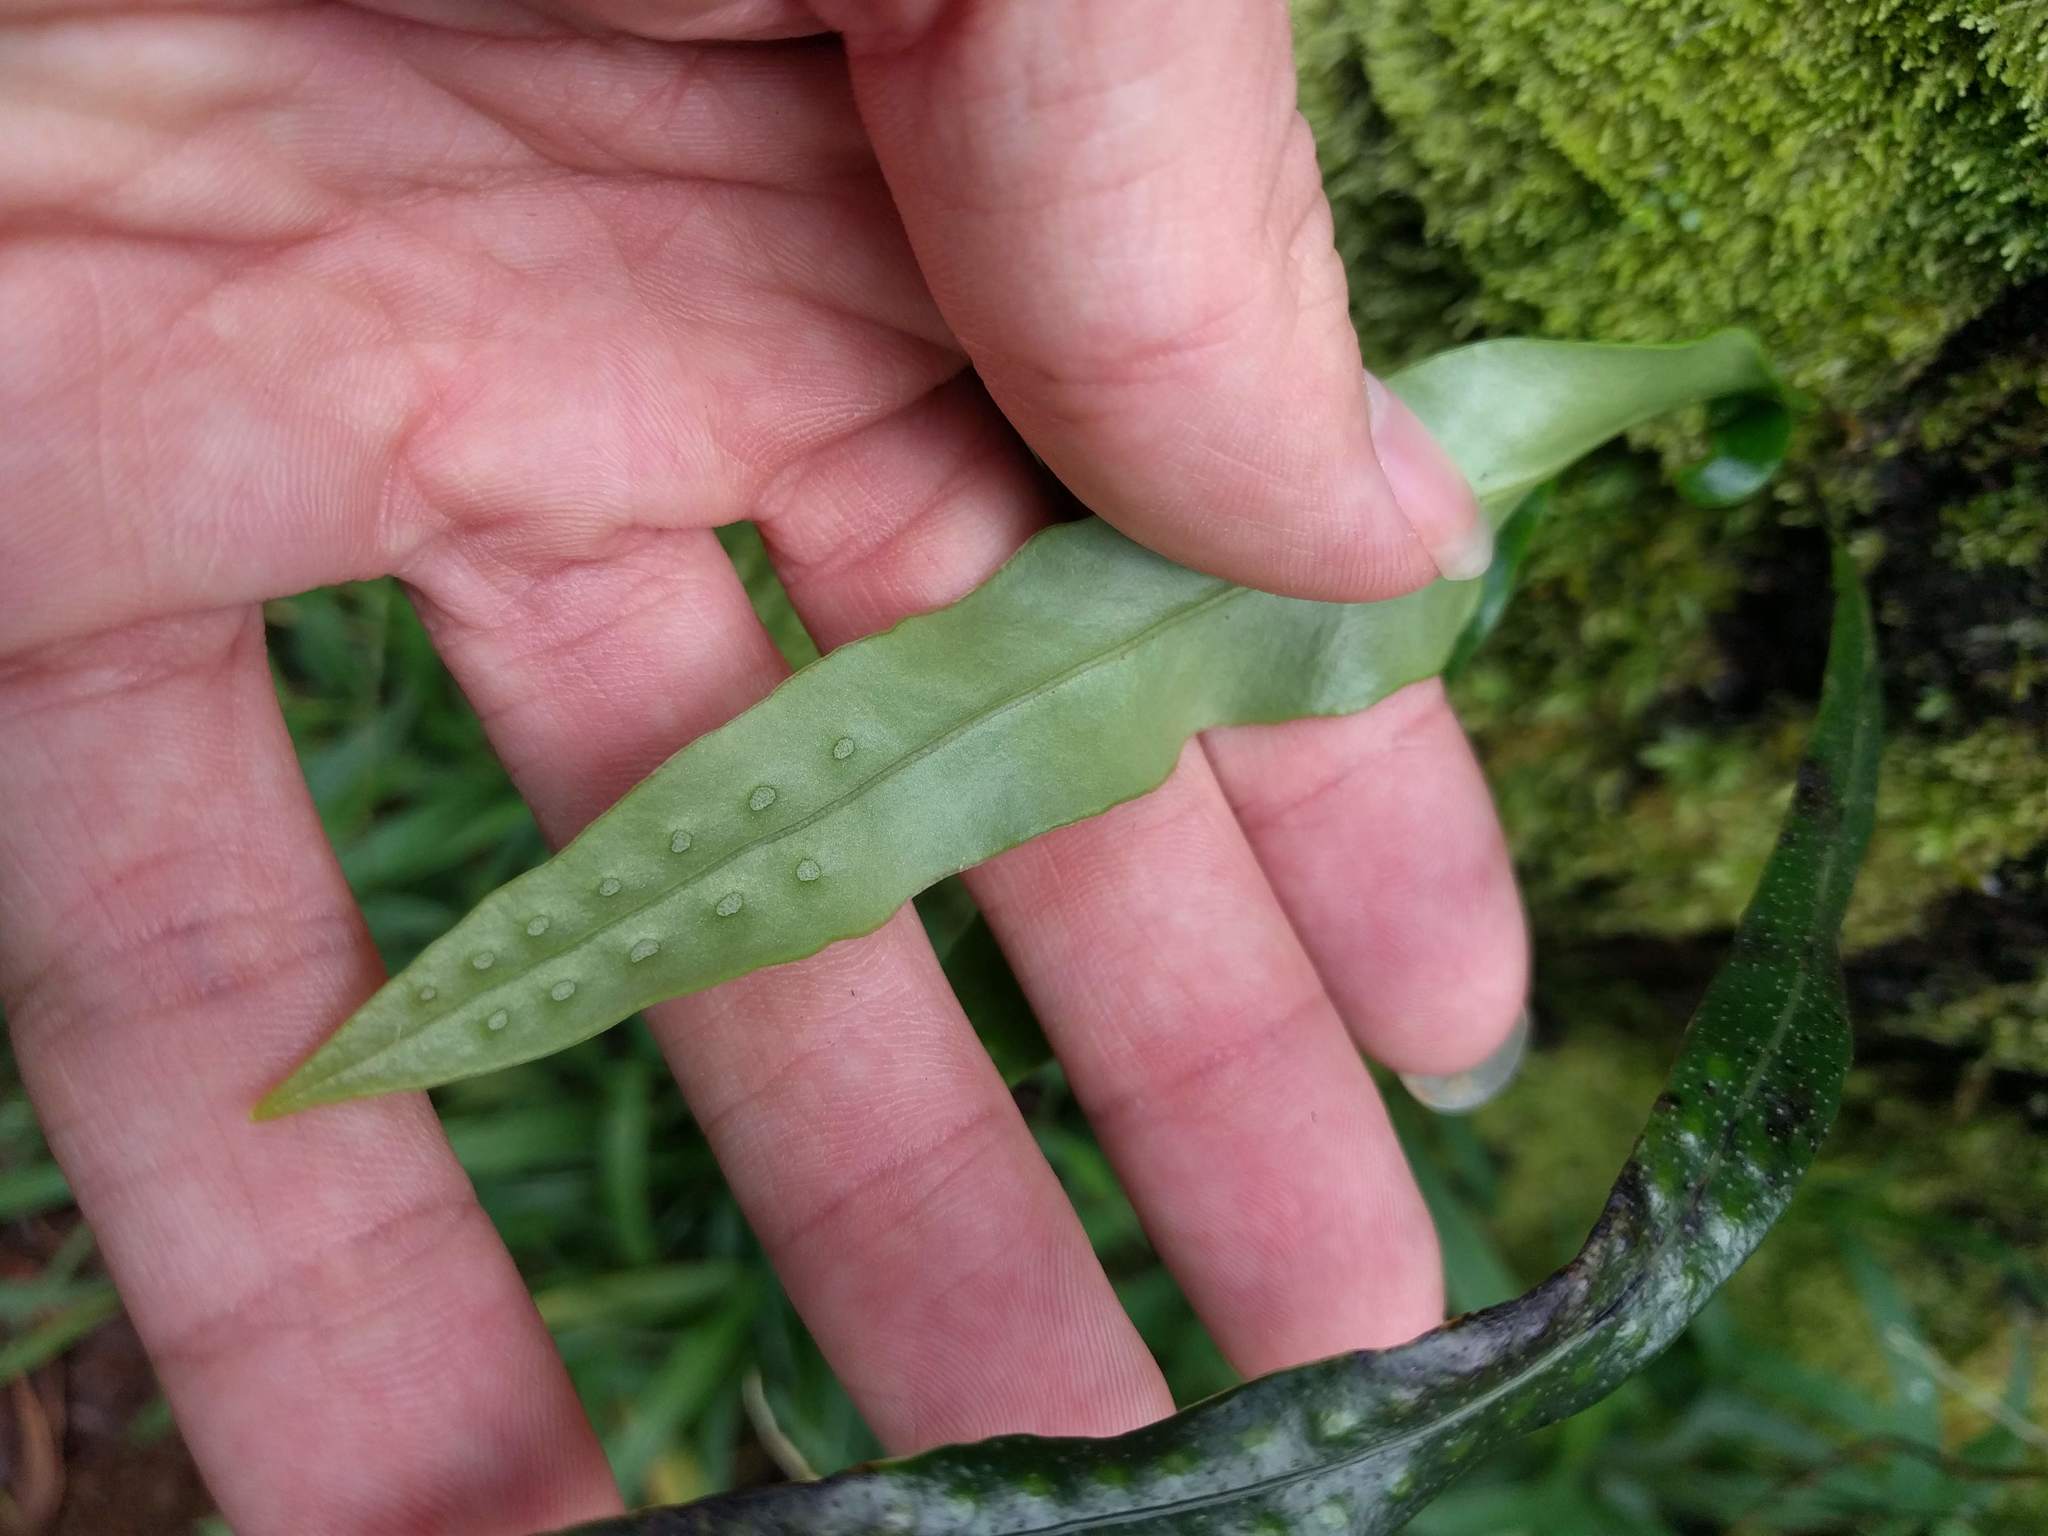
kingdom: Plantae
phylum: Tracheophyta
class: Polypodiopsida
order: Polypodiales
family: Polypodiaceae
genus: Lepisorus
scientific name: Lepisorus thunbergianus
